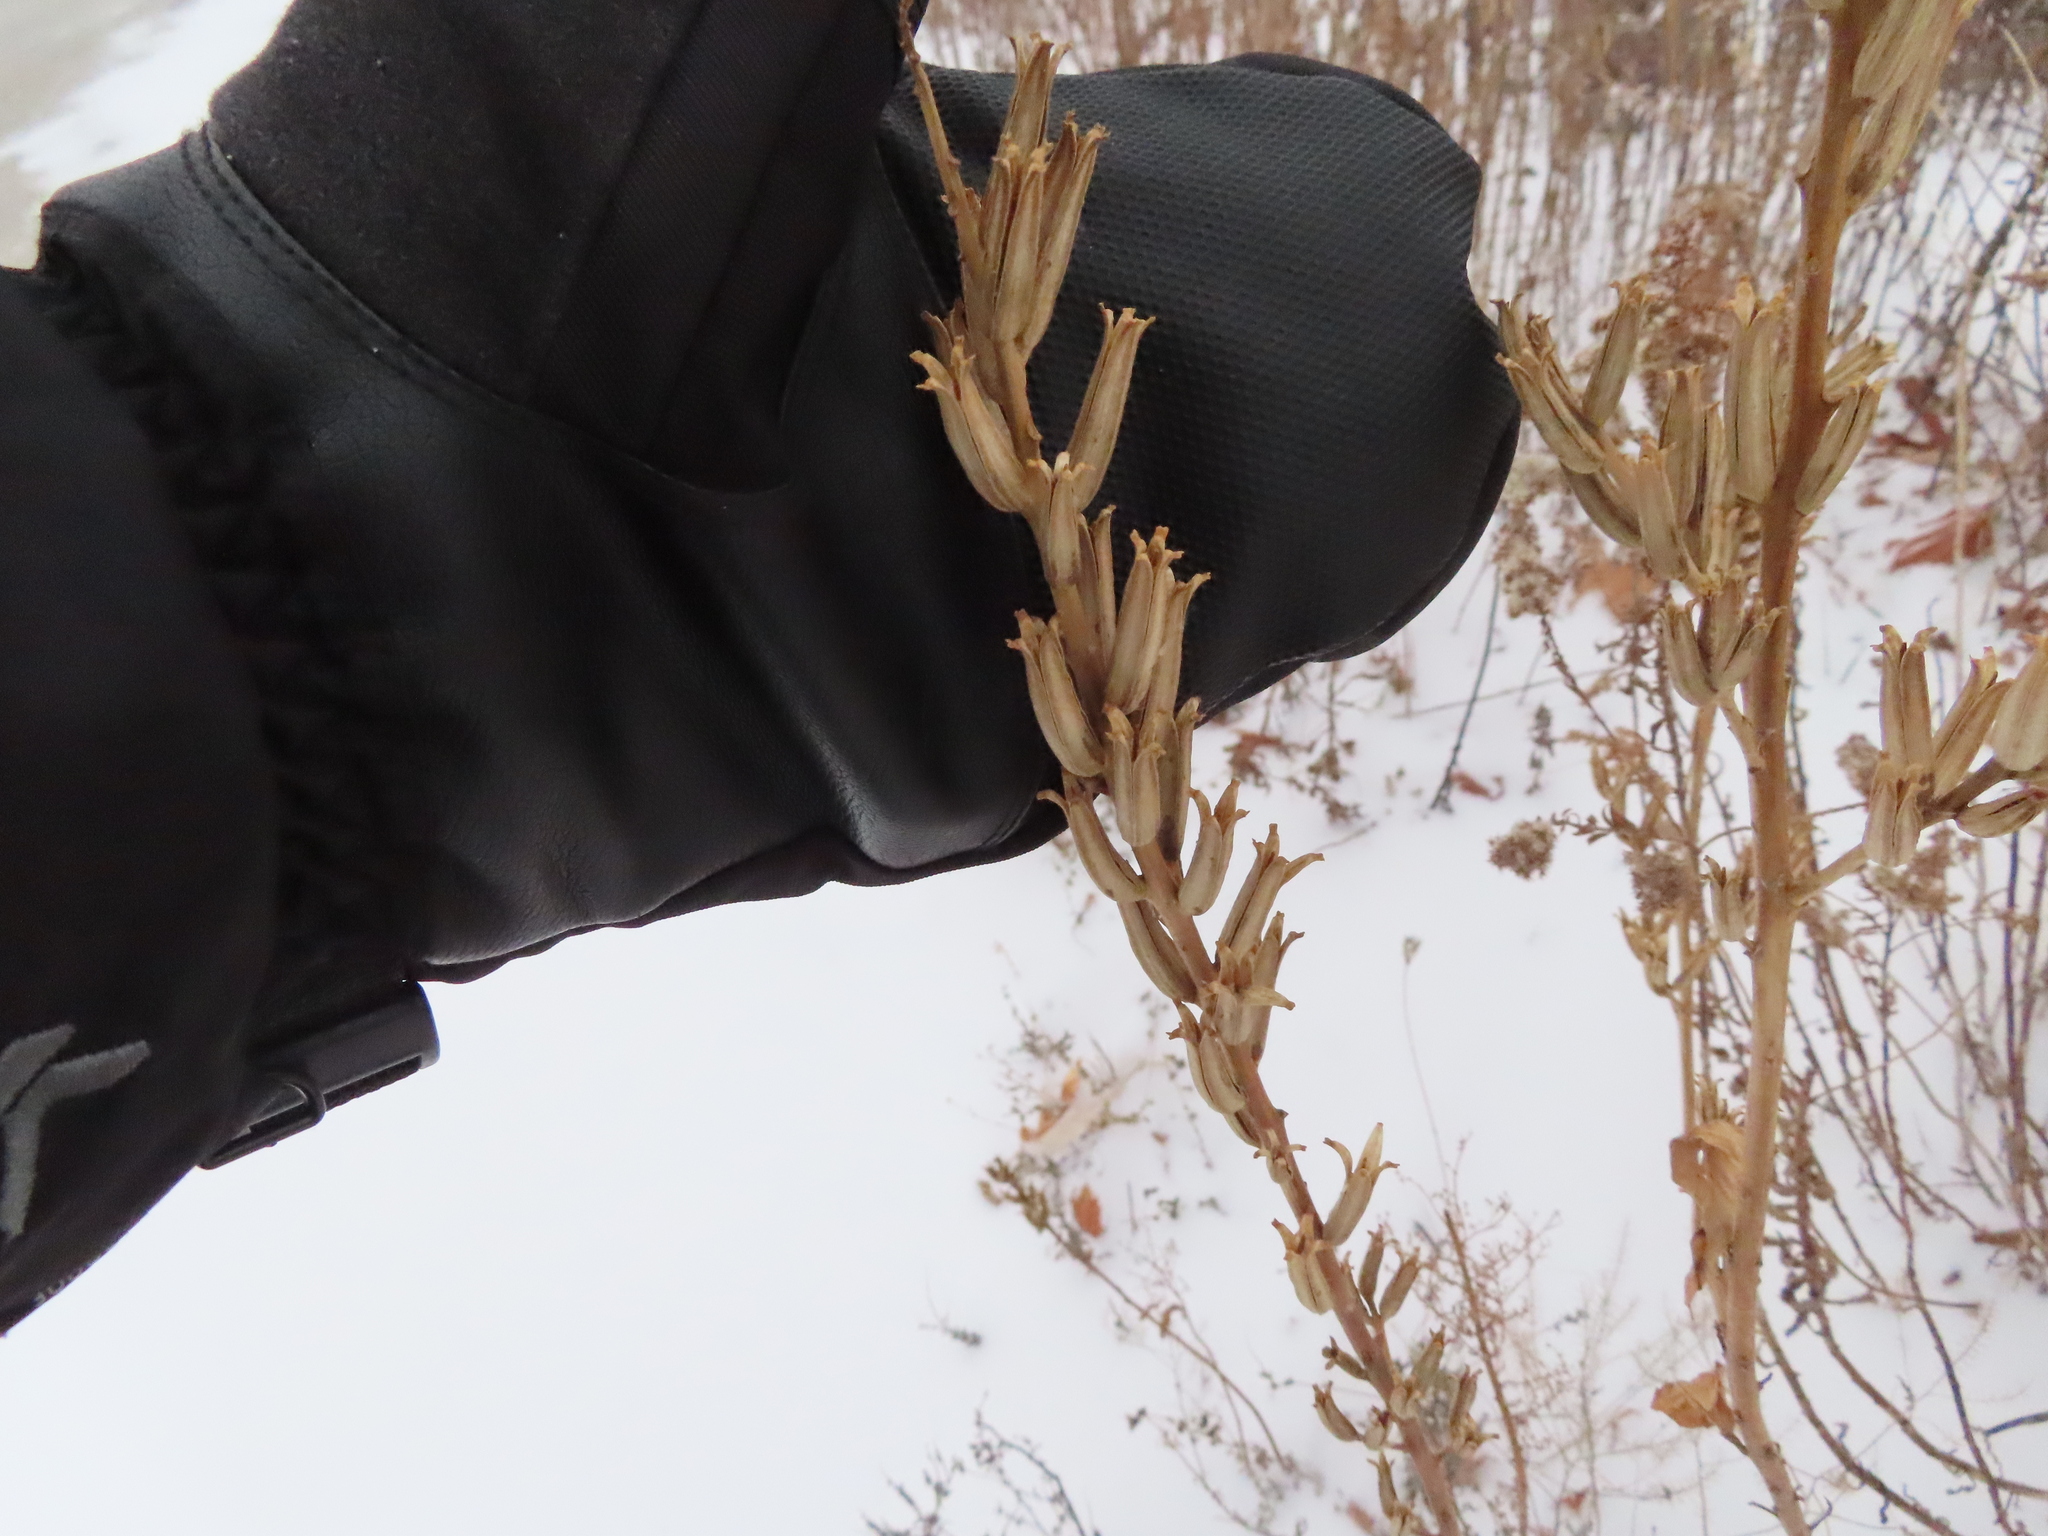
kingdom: Plantae
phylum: Tracheophyta
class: Magnoliopsida
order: Myrtales
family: Onagraceae
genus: Oenothera
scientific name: Oenothera biennis
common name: Common evening-primrose
